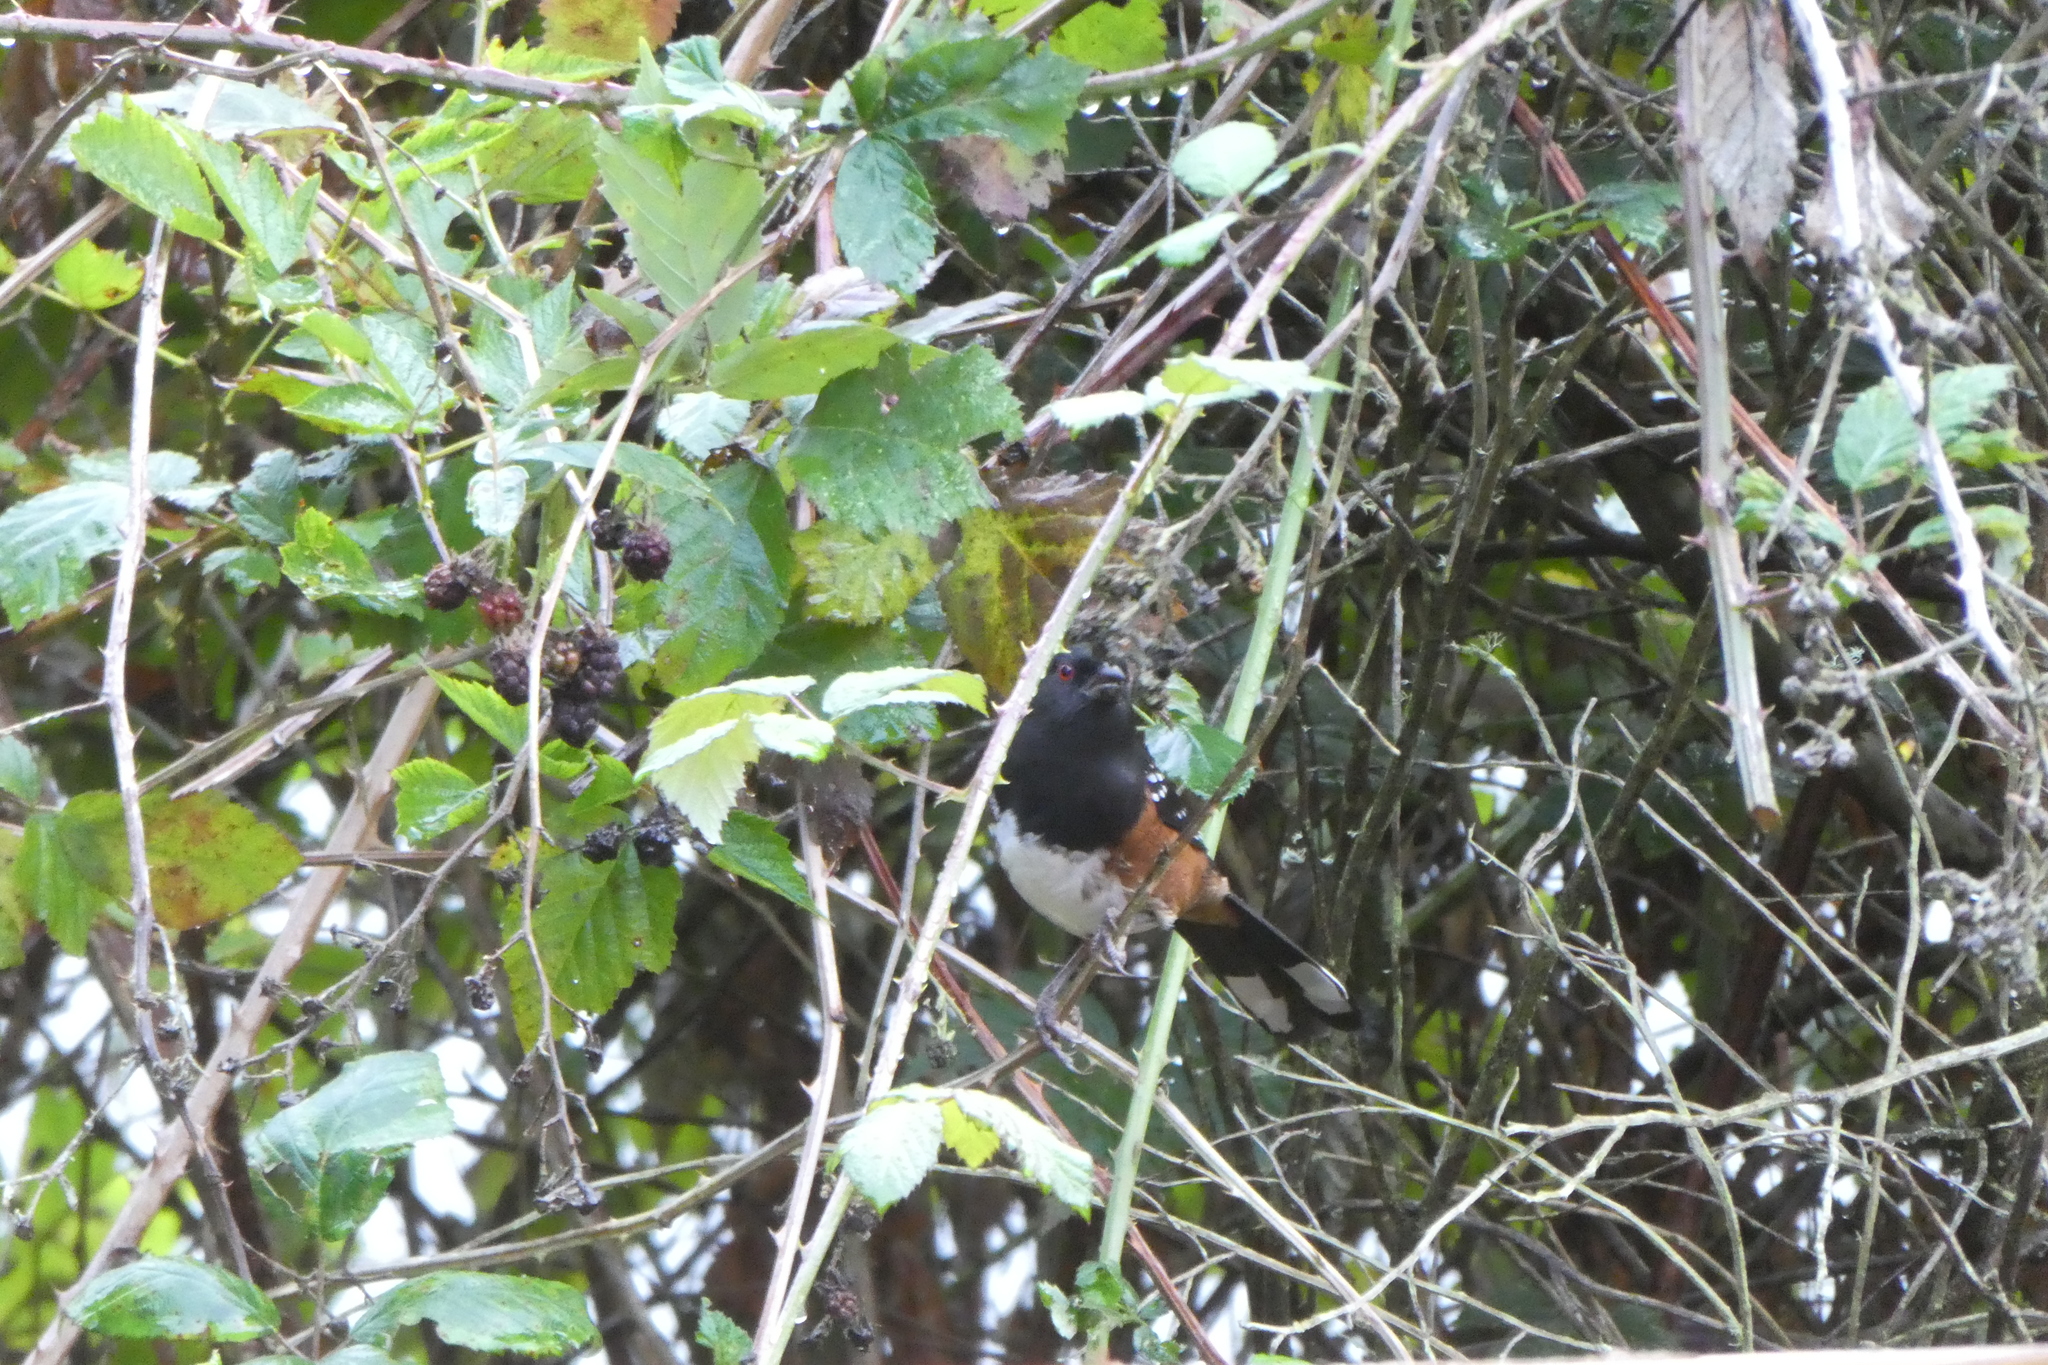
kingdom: Animalia
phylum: Chordata
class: Aves
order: Passeriformes
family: Passerellidae
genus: Pipilo
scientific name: Pipilo maculatus
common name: Spotted towhee
